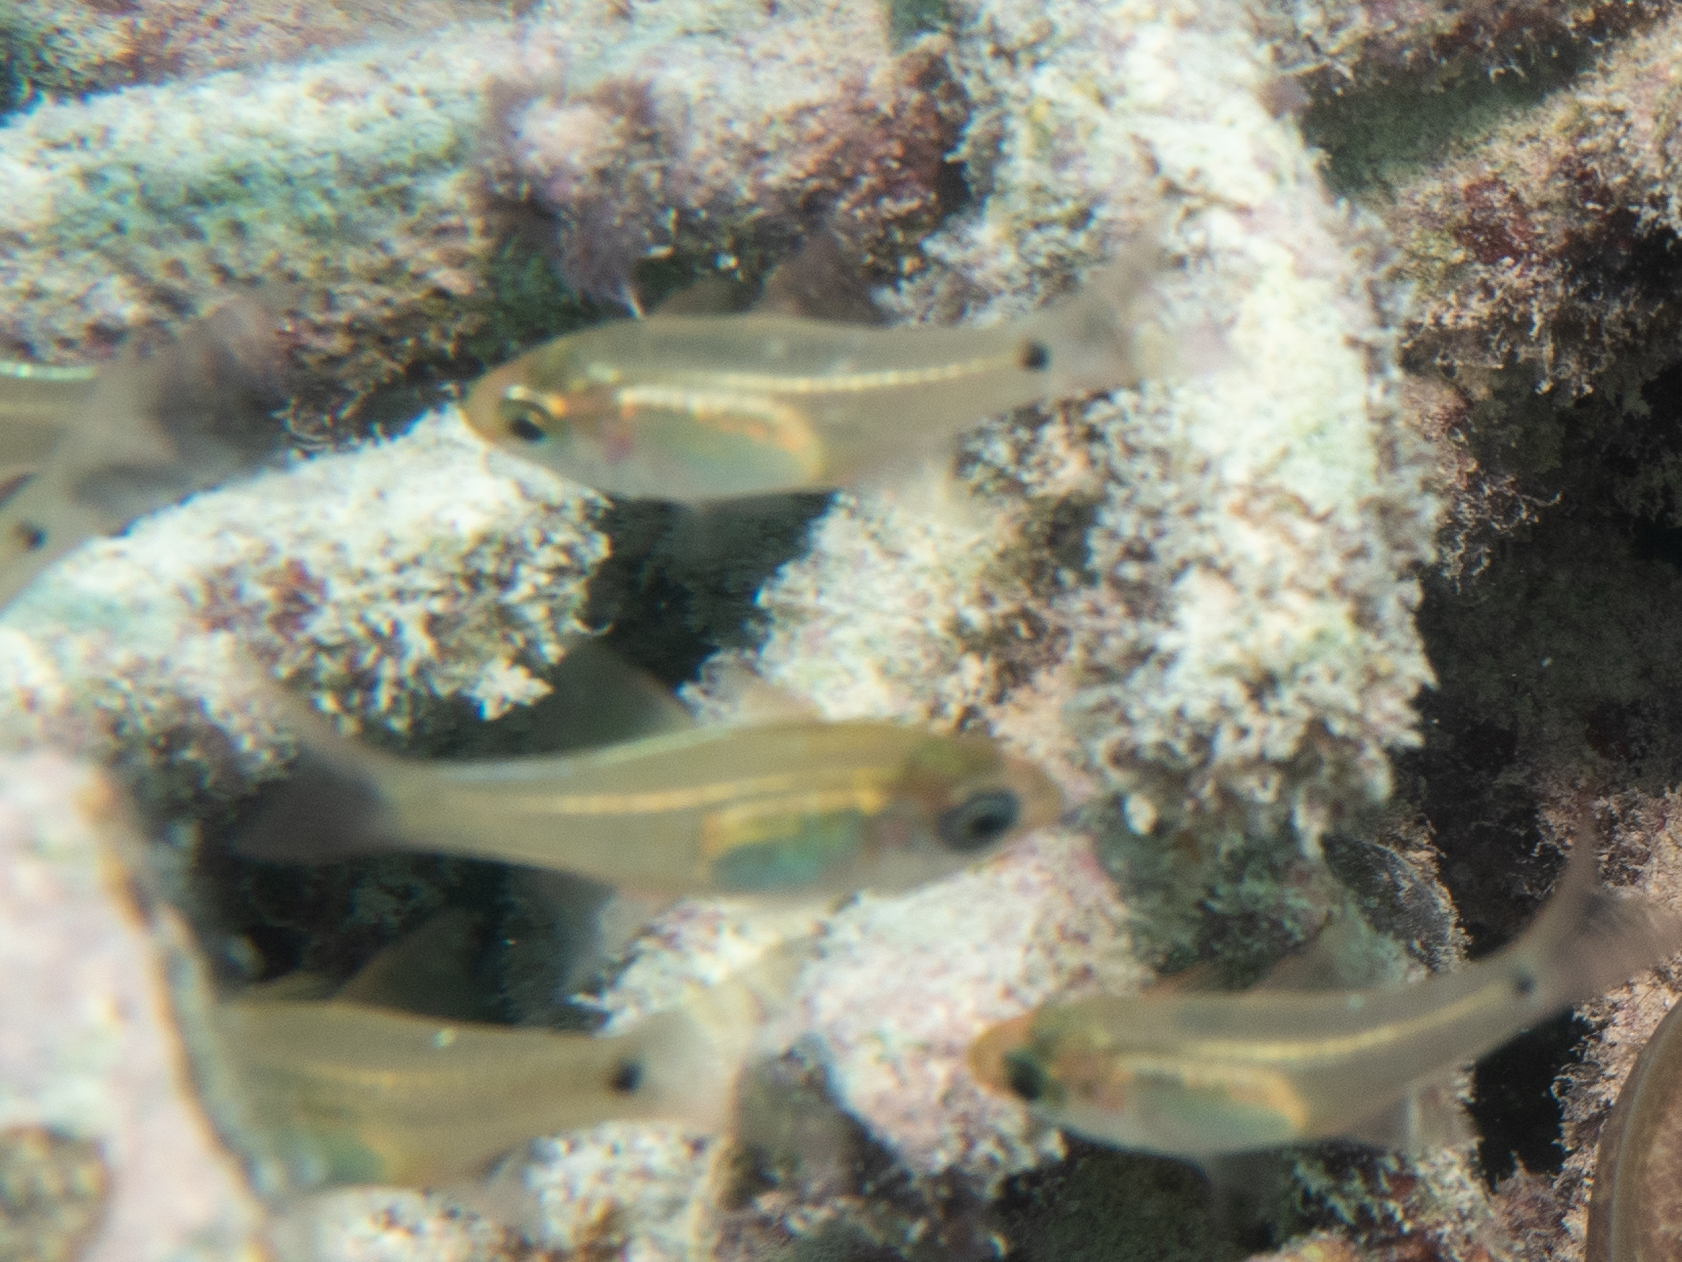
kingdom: Animalia
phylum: Chordata
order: Perciformes
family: Apogonidae
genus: Rhabdamia
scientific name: Rhabdamia gracilis
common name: Luminous cardinalfish
